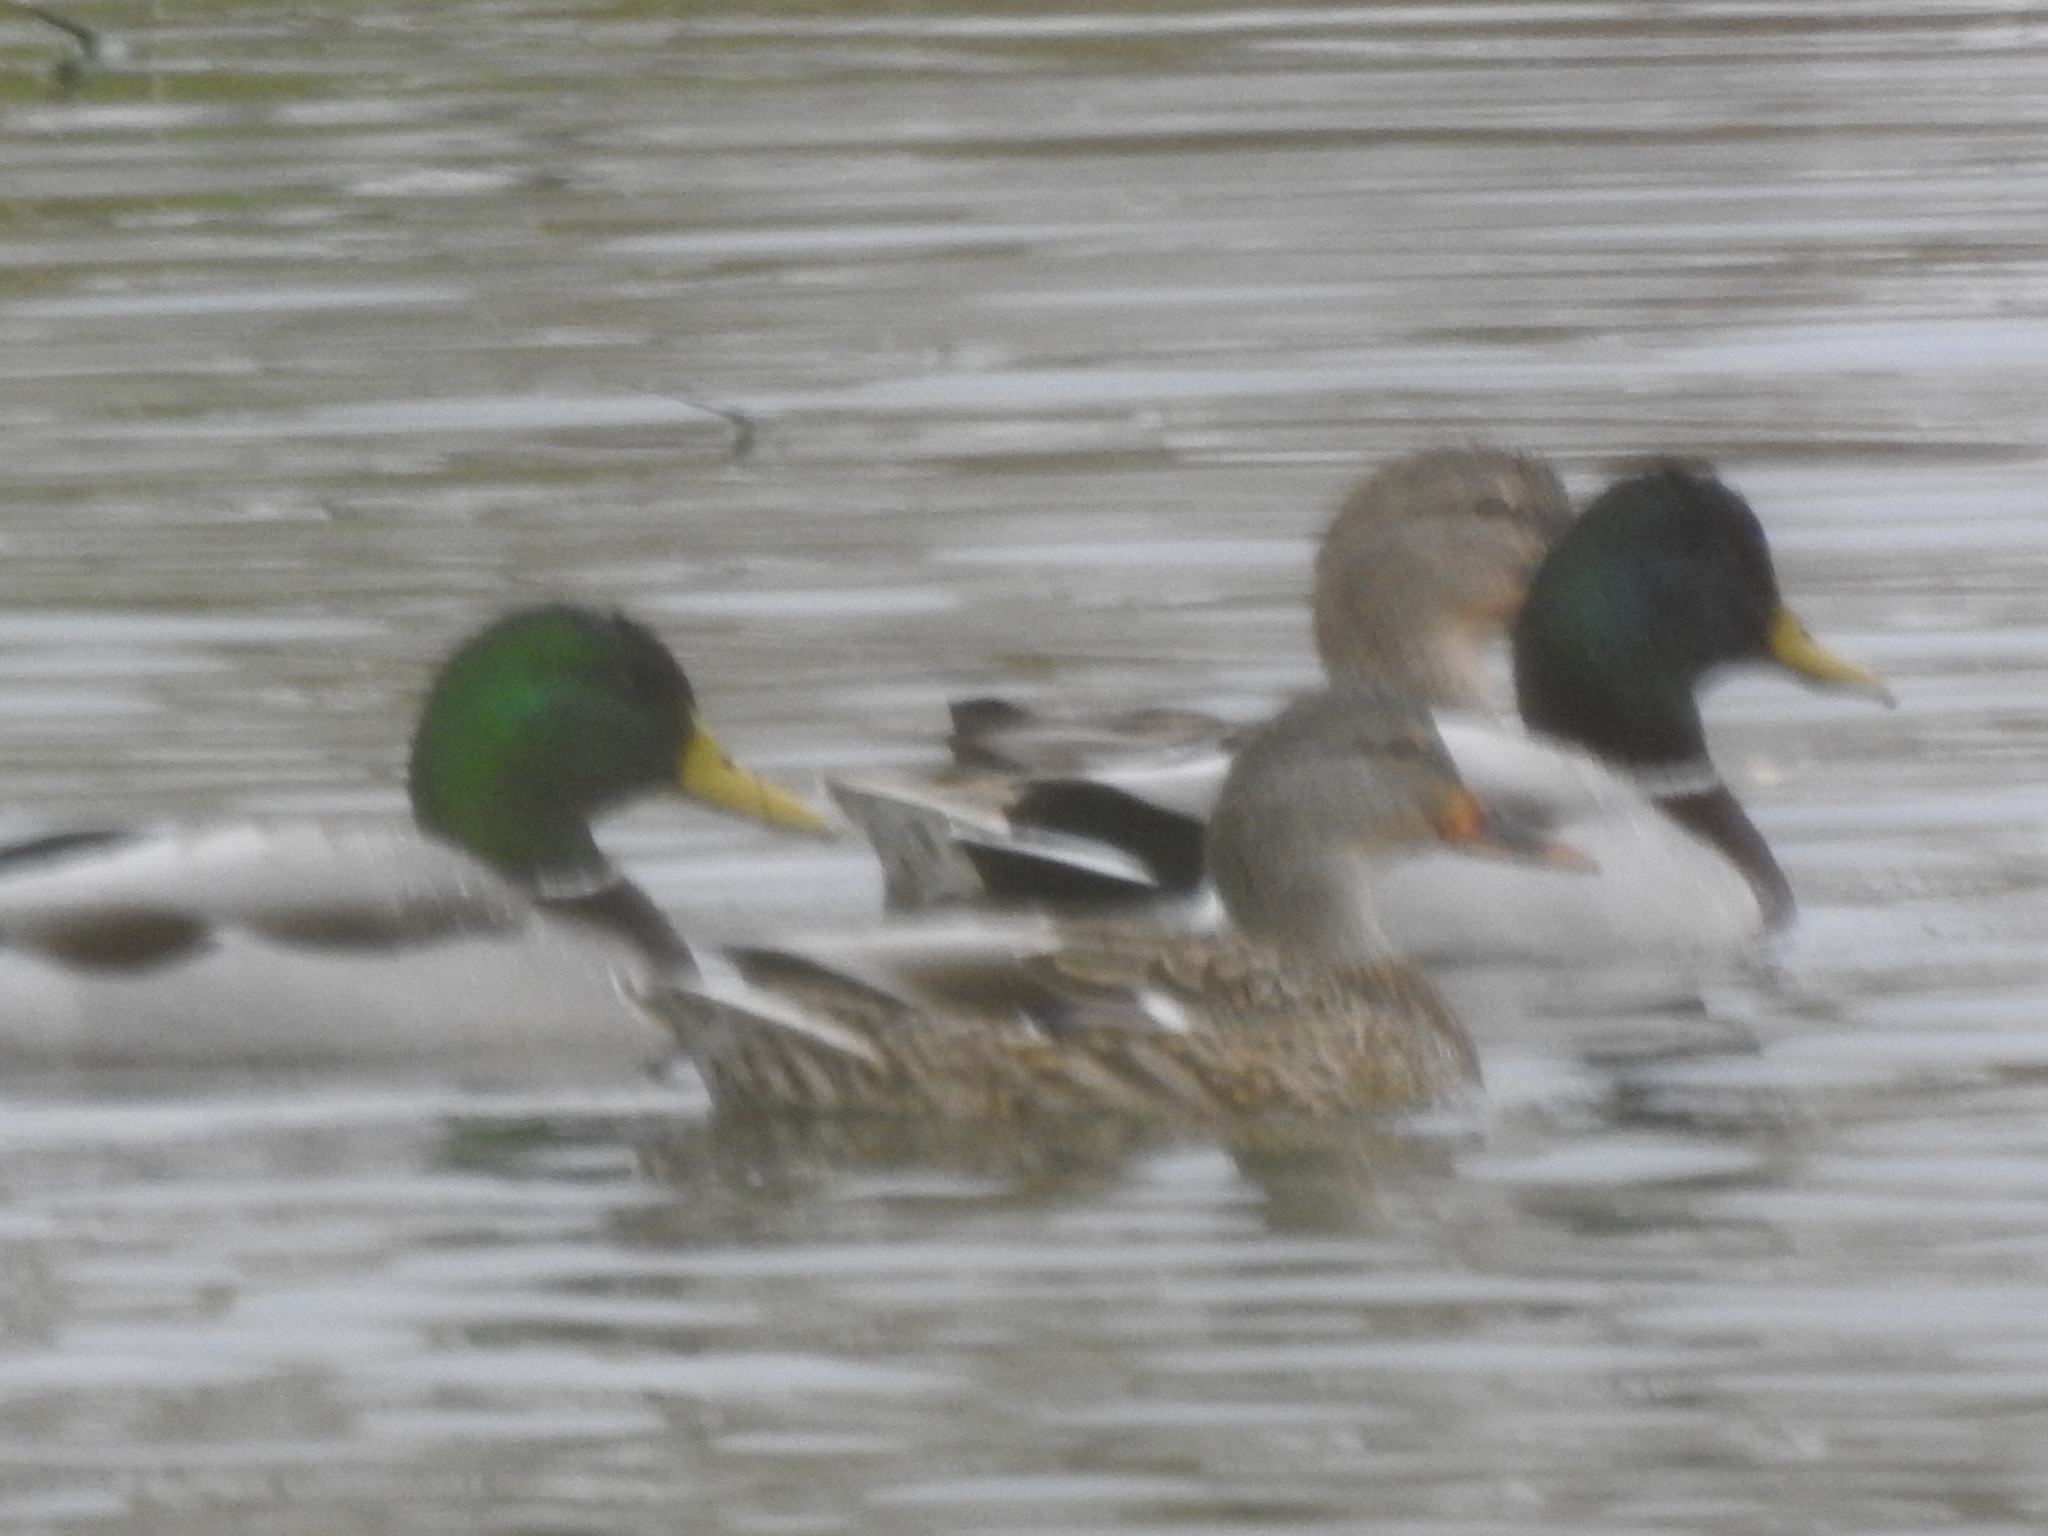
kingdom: Animalia
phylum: Chordata
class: Aves
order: Anseriformes
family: Anatidae
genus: Anas
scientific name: Anas platyrhynchos
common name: Mallard
